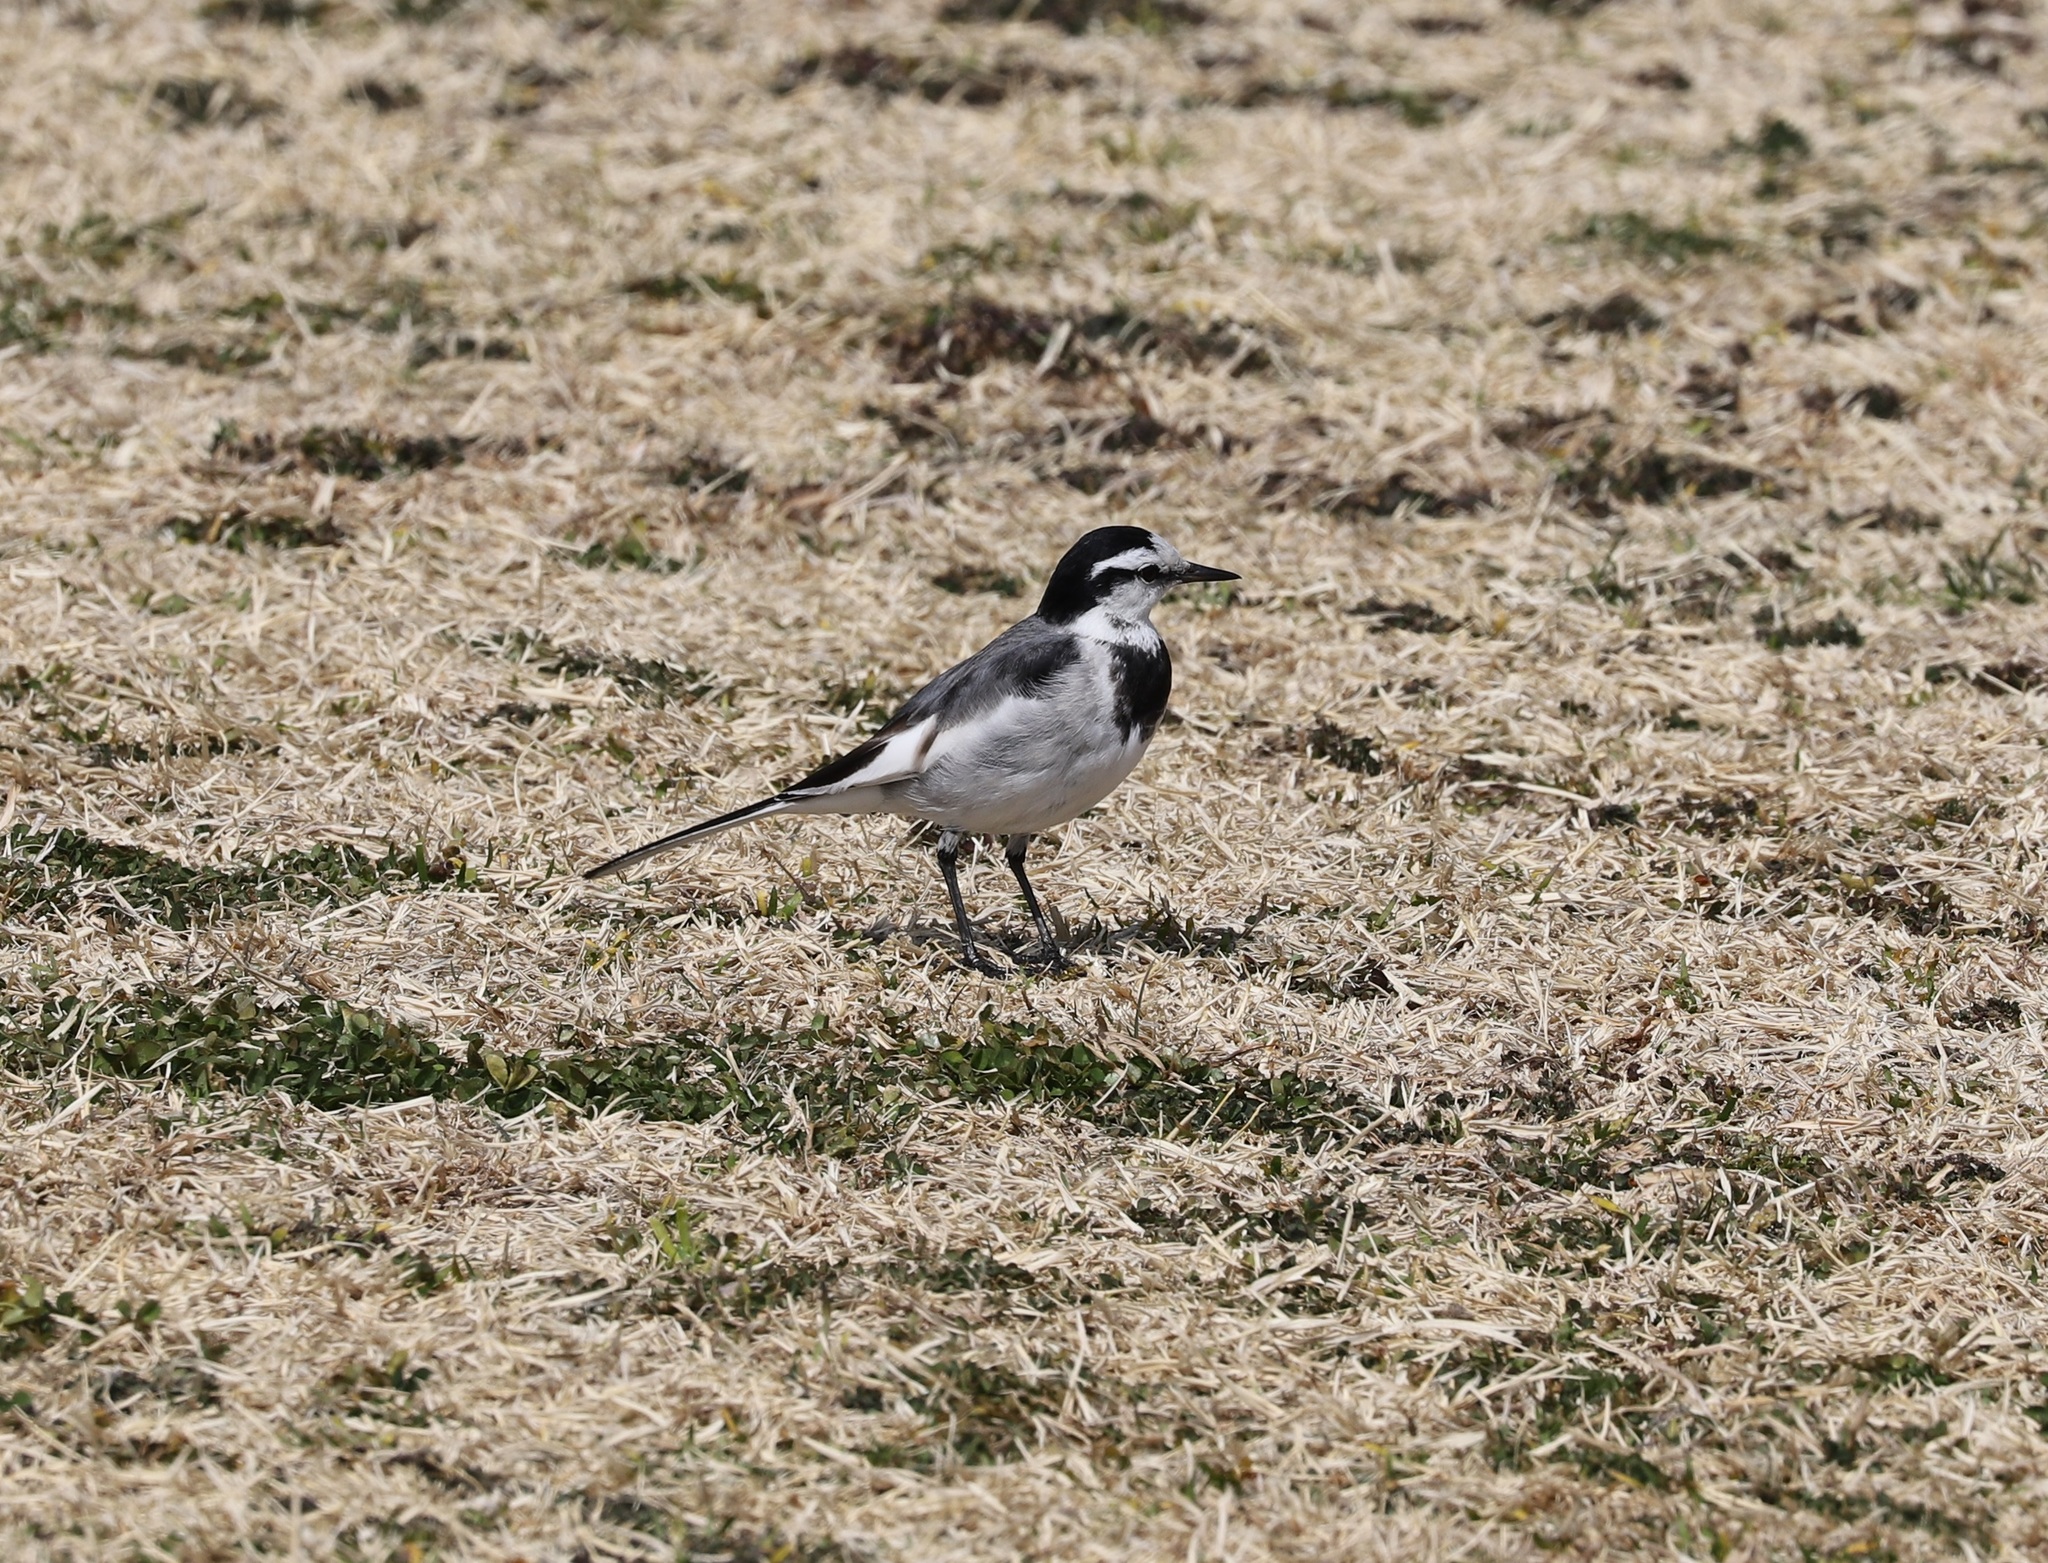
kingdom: Animalia
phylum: Chordata
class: Aves
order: Passeriformes
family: Motacillidae
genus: Motacilla
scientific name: Motacilla alba
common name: White wagtail
